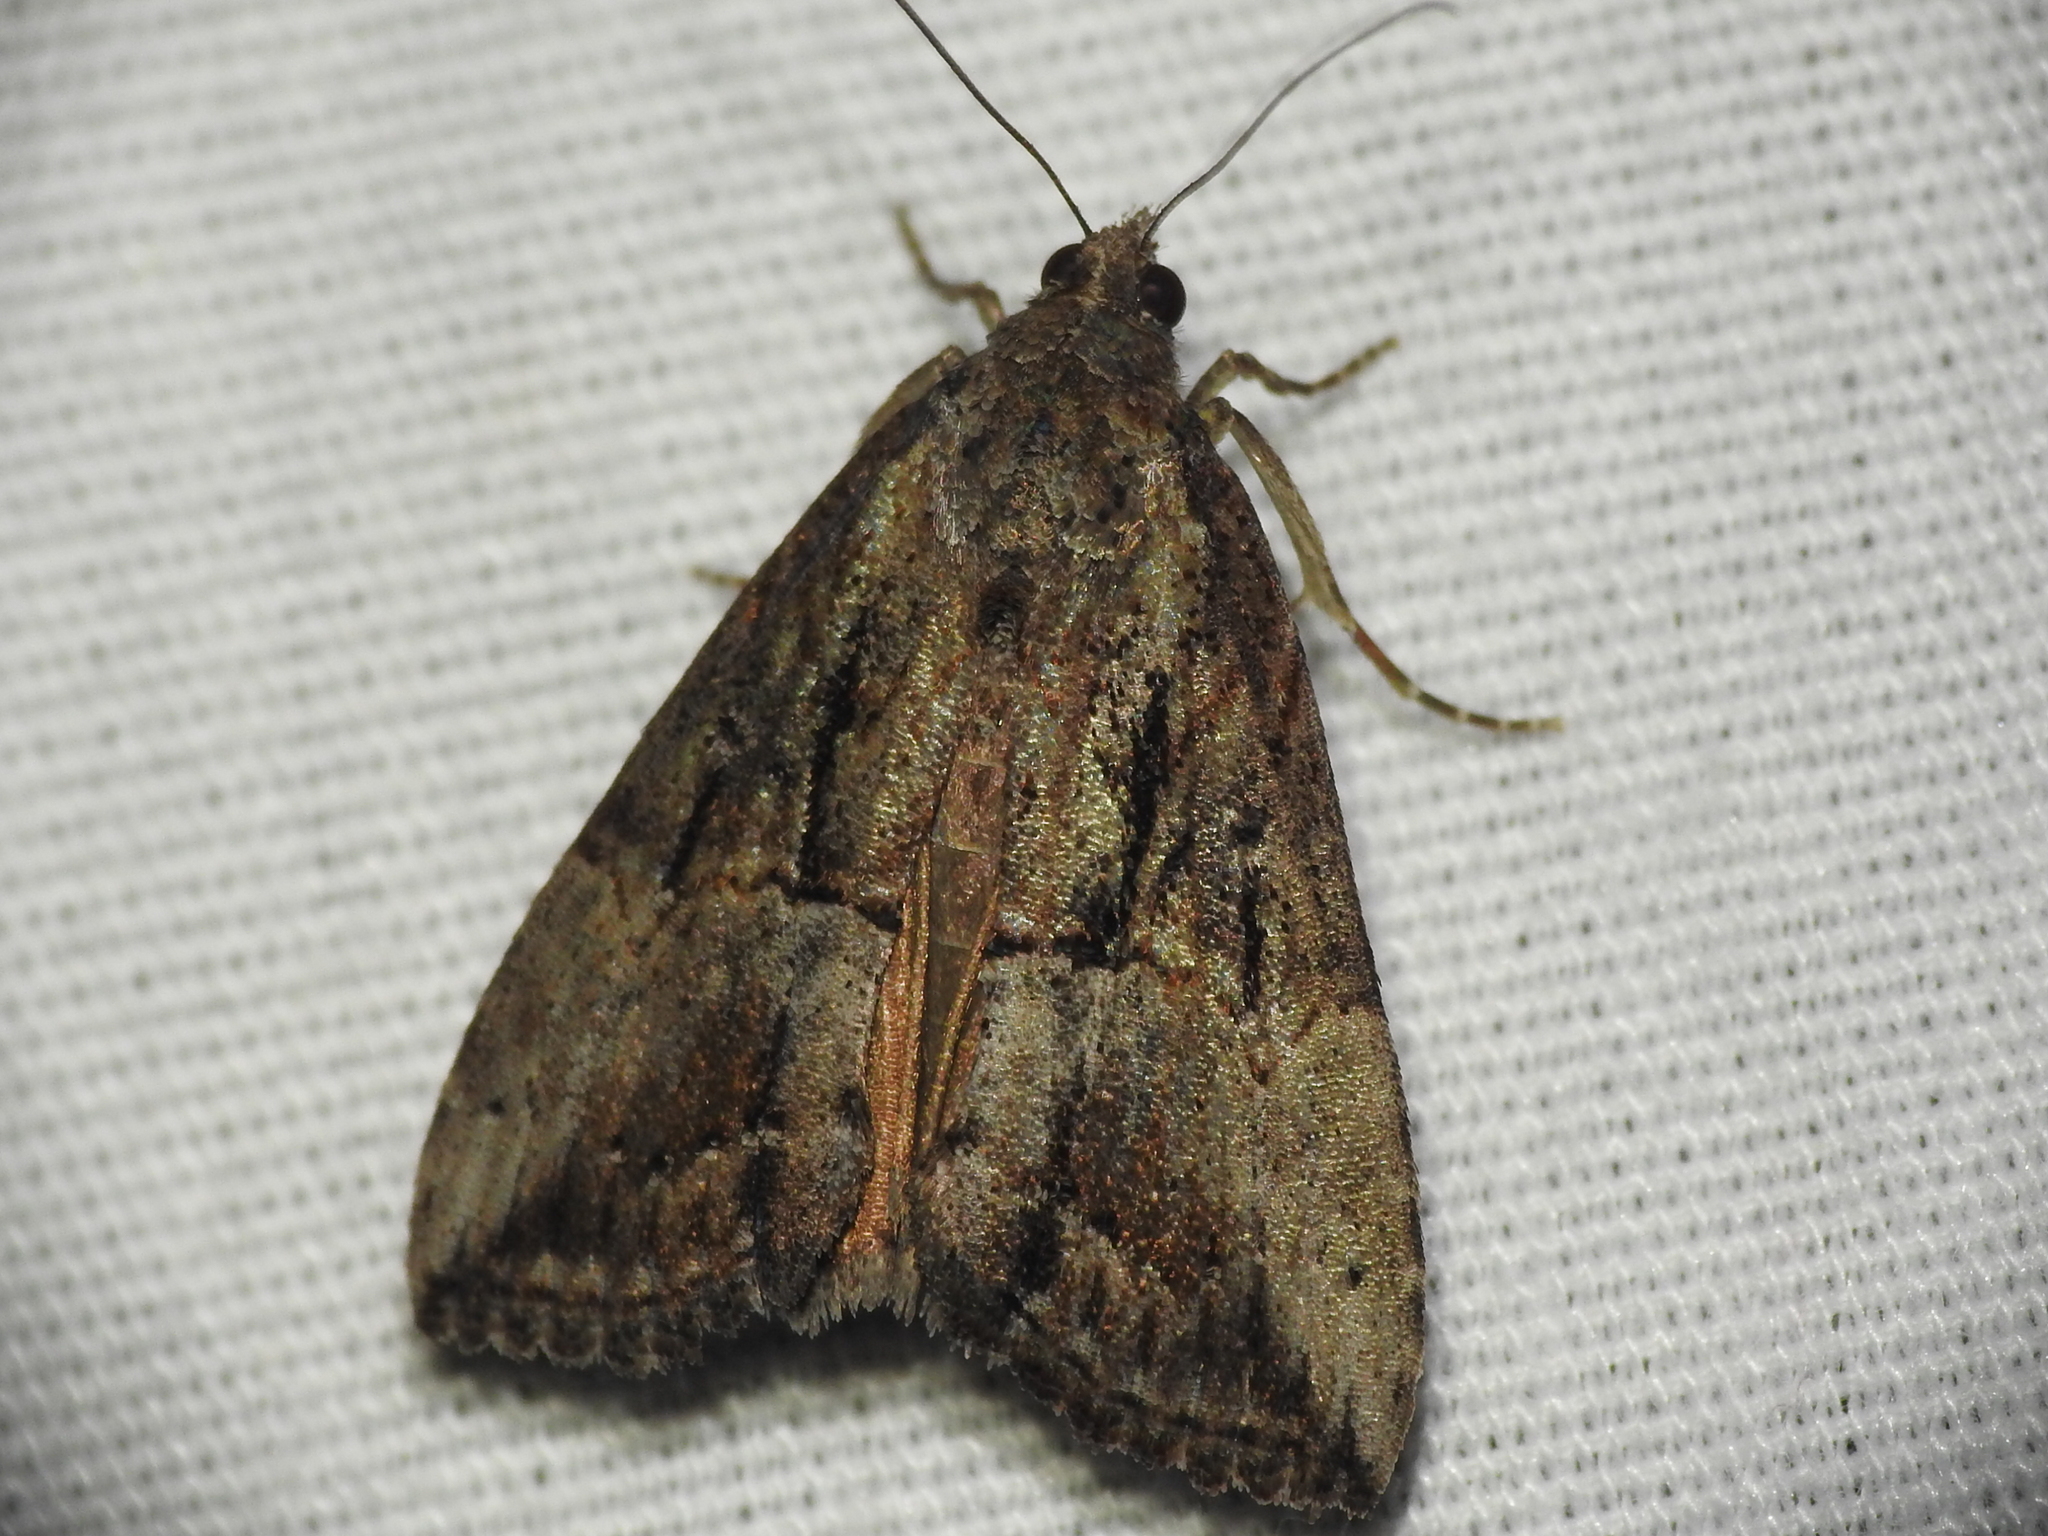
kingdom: Animalia
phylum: Arthropoda
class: Insecta
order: Lepidoptera
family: Erebidae
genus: Hypena
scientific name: Hypena scabra
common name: Green cloverworm
